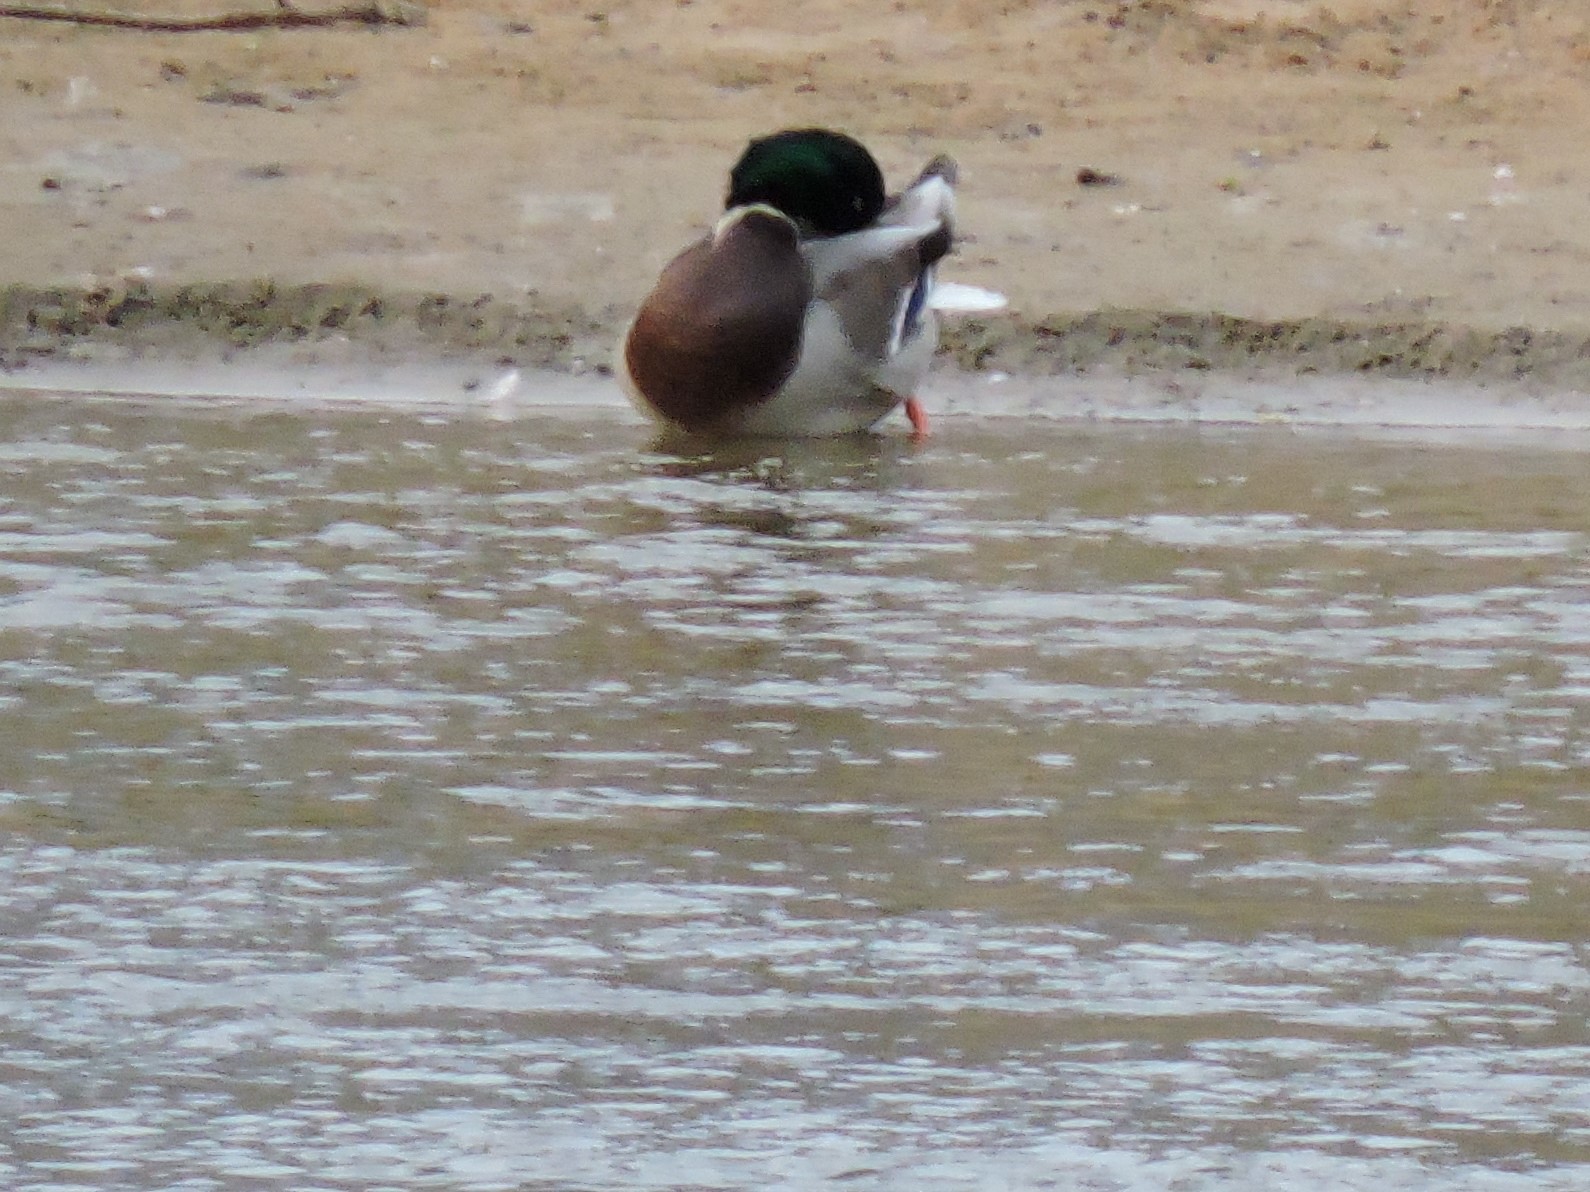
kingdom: Animalia
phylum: Chordata
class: Aves
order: Anseriformes
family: Anatidae
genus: Anas
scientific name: Anas platyrhynchos
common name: Mallard
